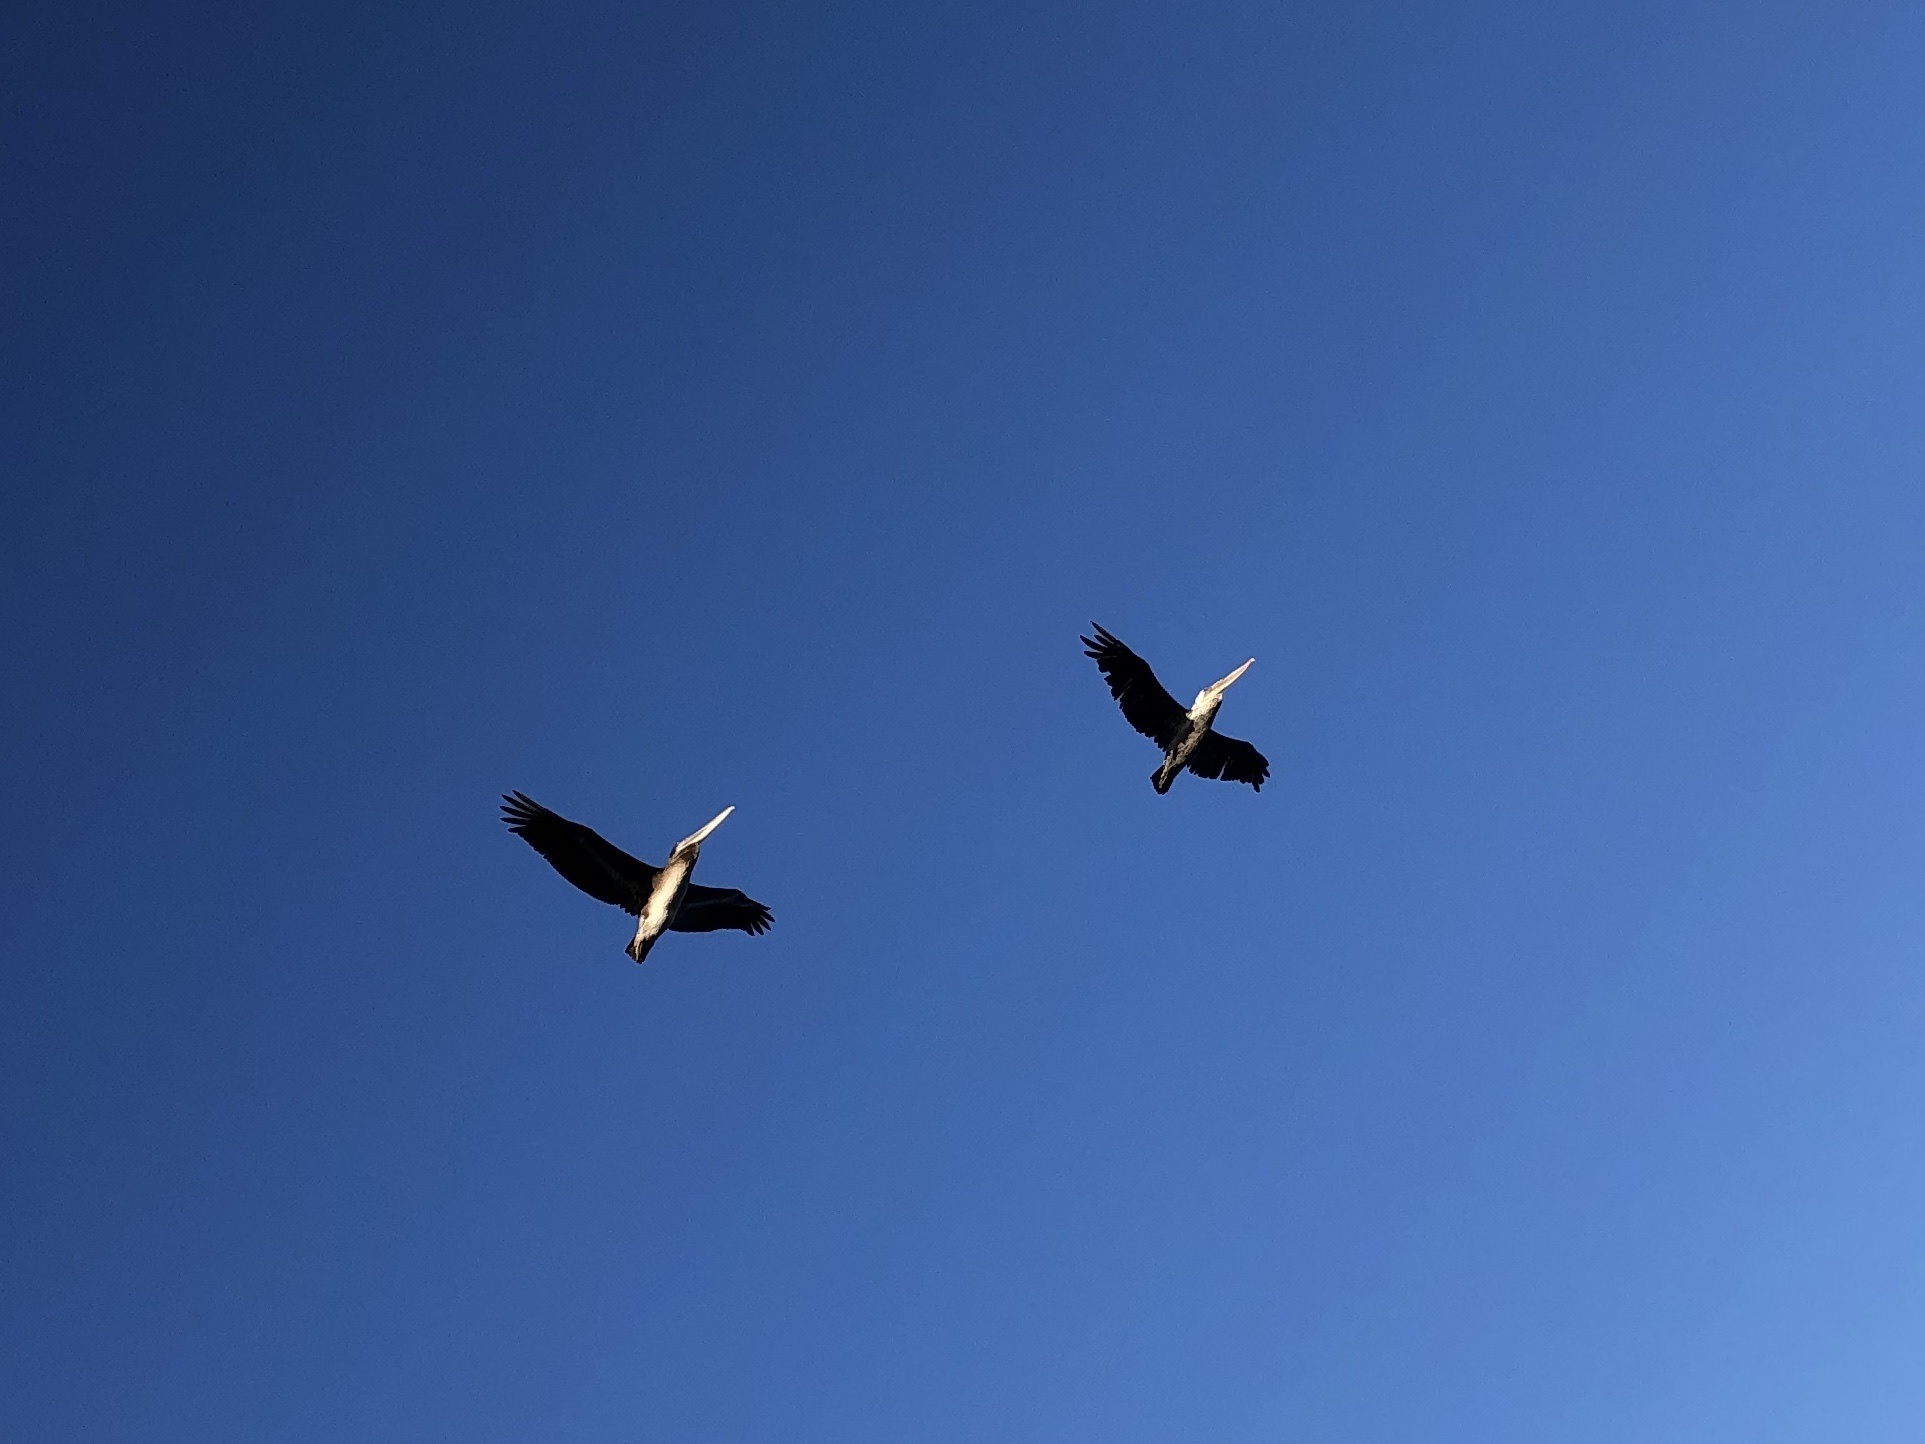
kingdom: Animalia
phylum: Chordata
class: Aves
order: Pelecaniformes
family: Pelecanidae
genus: Pelecanus
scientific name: Pelecanus occidentalis
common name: Brown pelican
